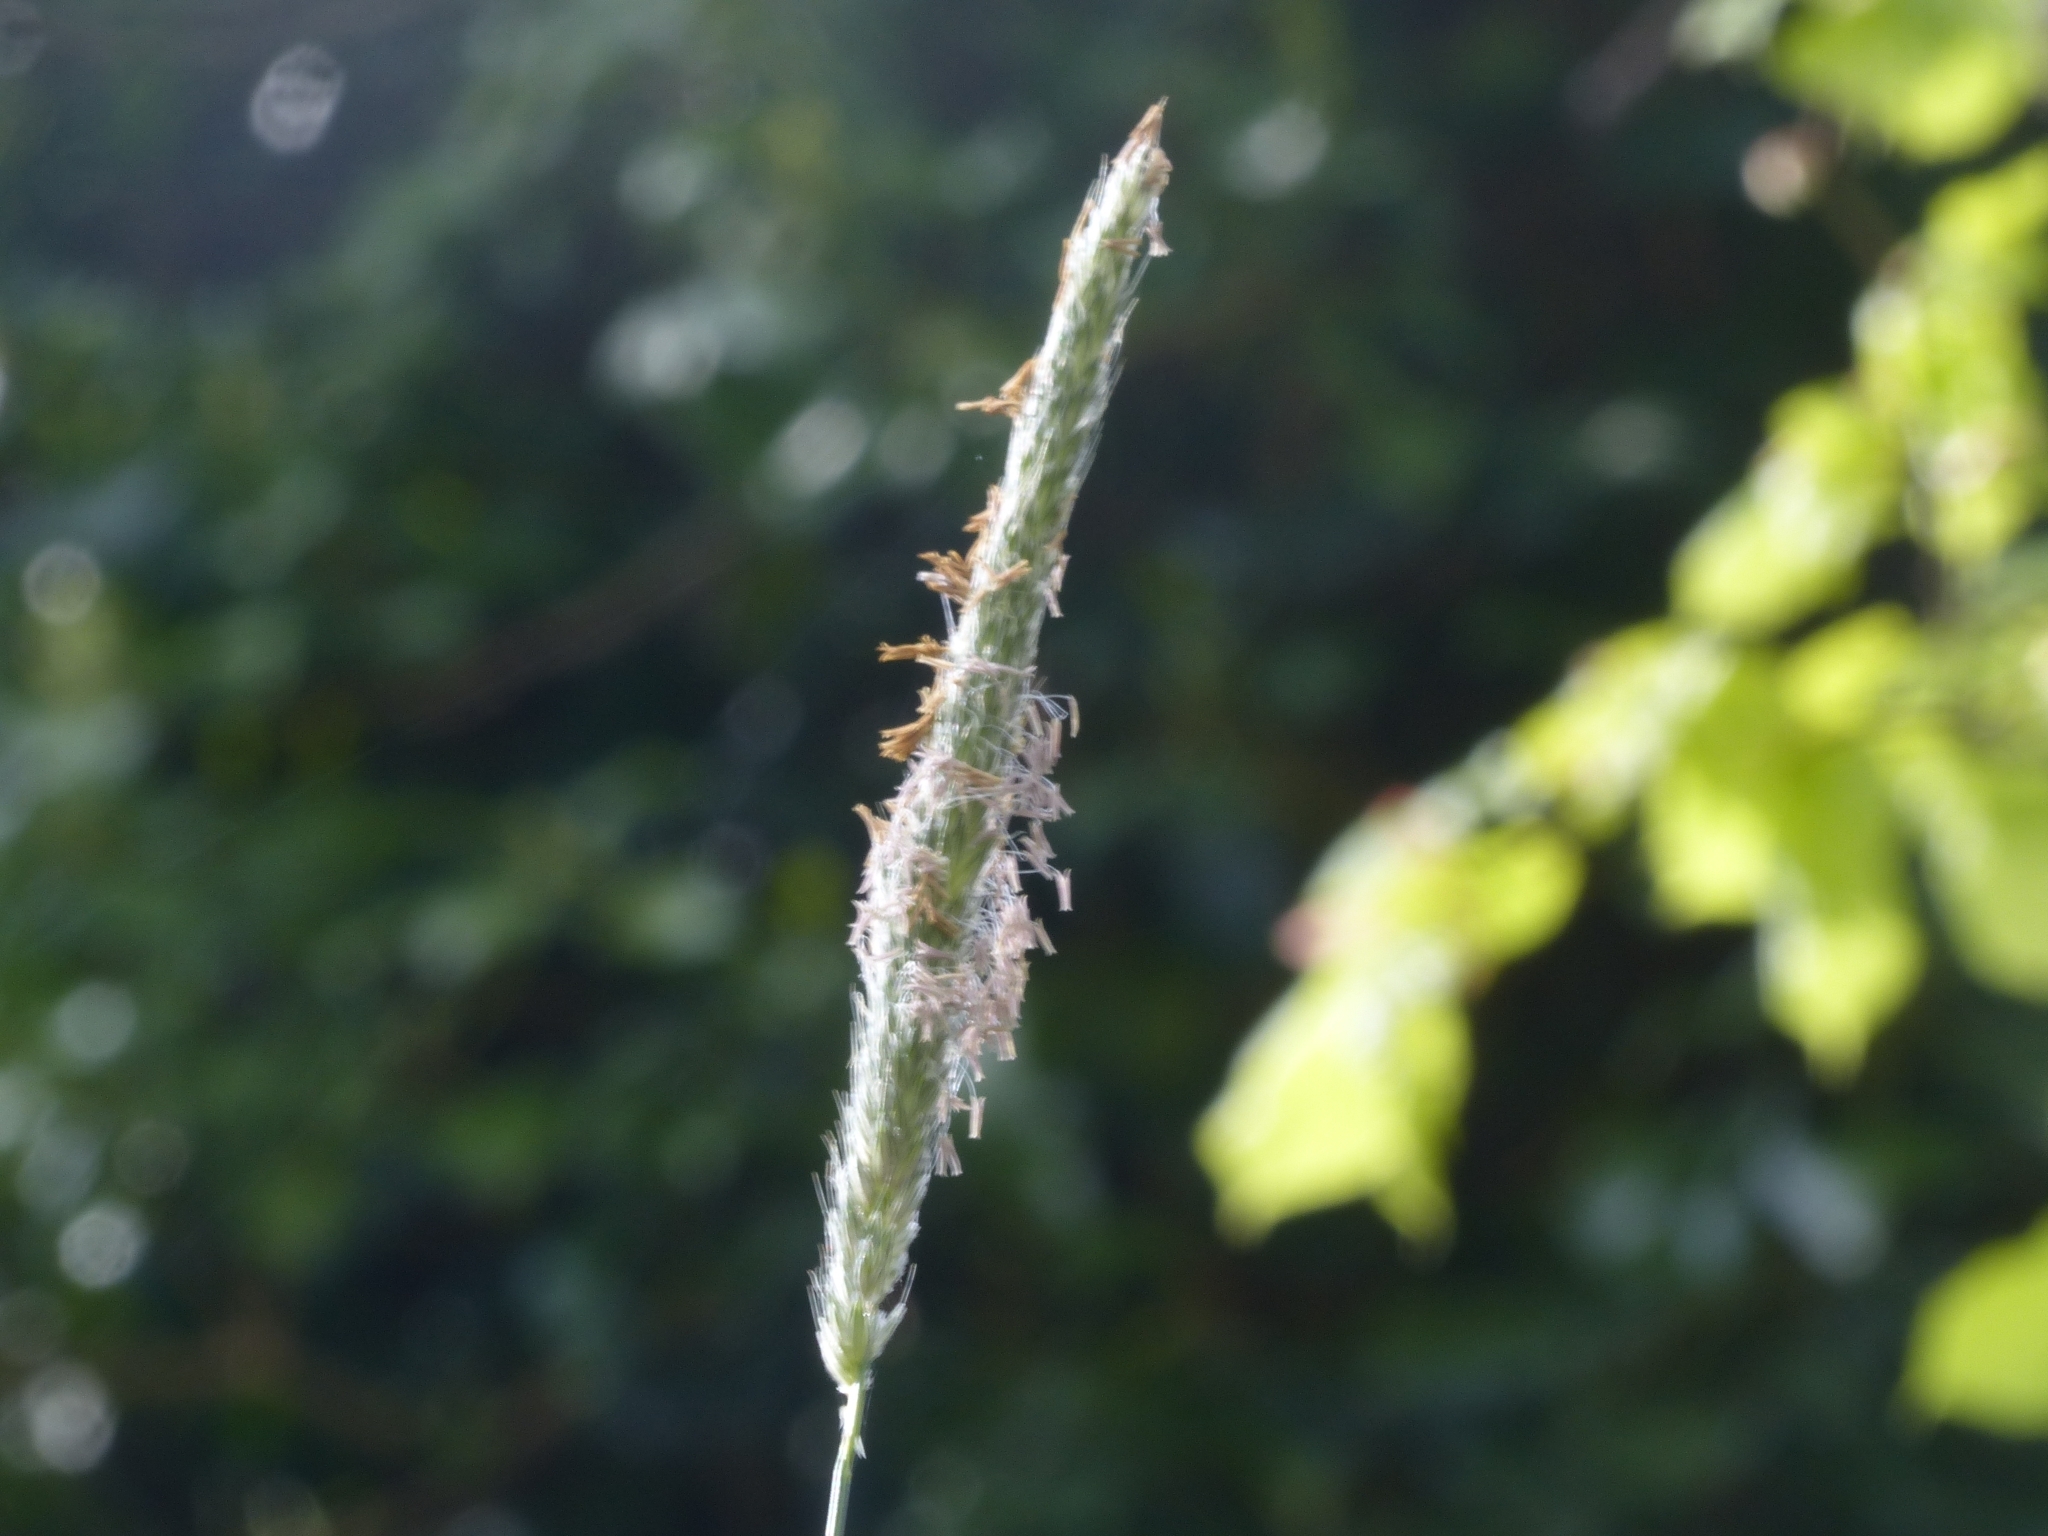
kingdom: Plantae
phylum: Tracheophyta
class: Liliopsida
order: Poales
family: Poaceae
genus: Alopecurus
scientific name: Alopecurus pratensis
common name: Meadow foxtail
